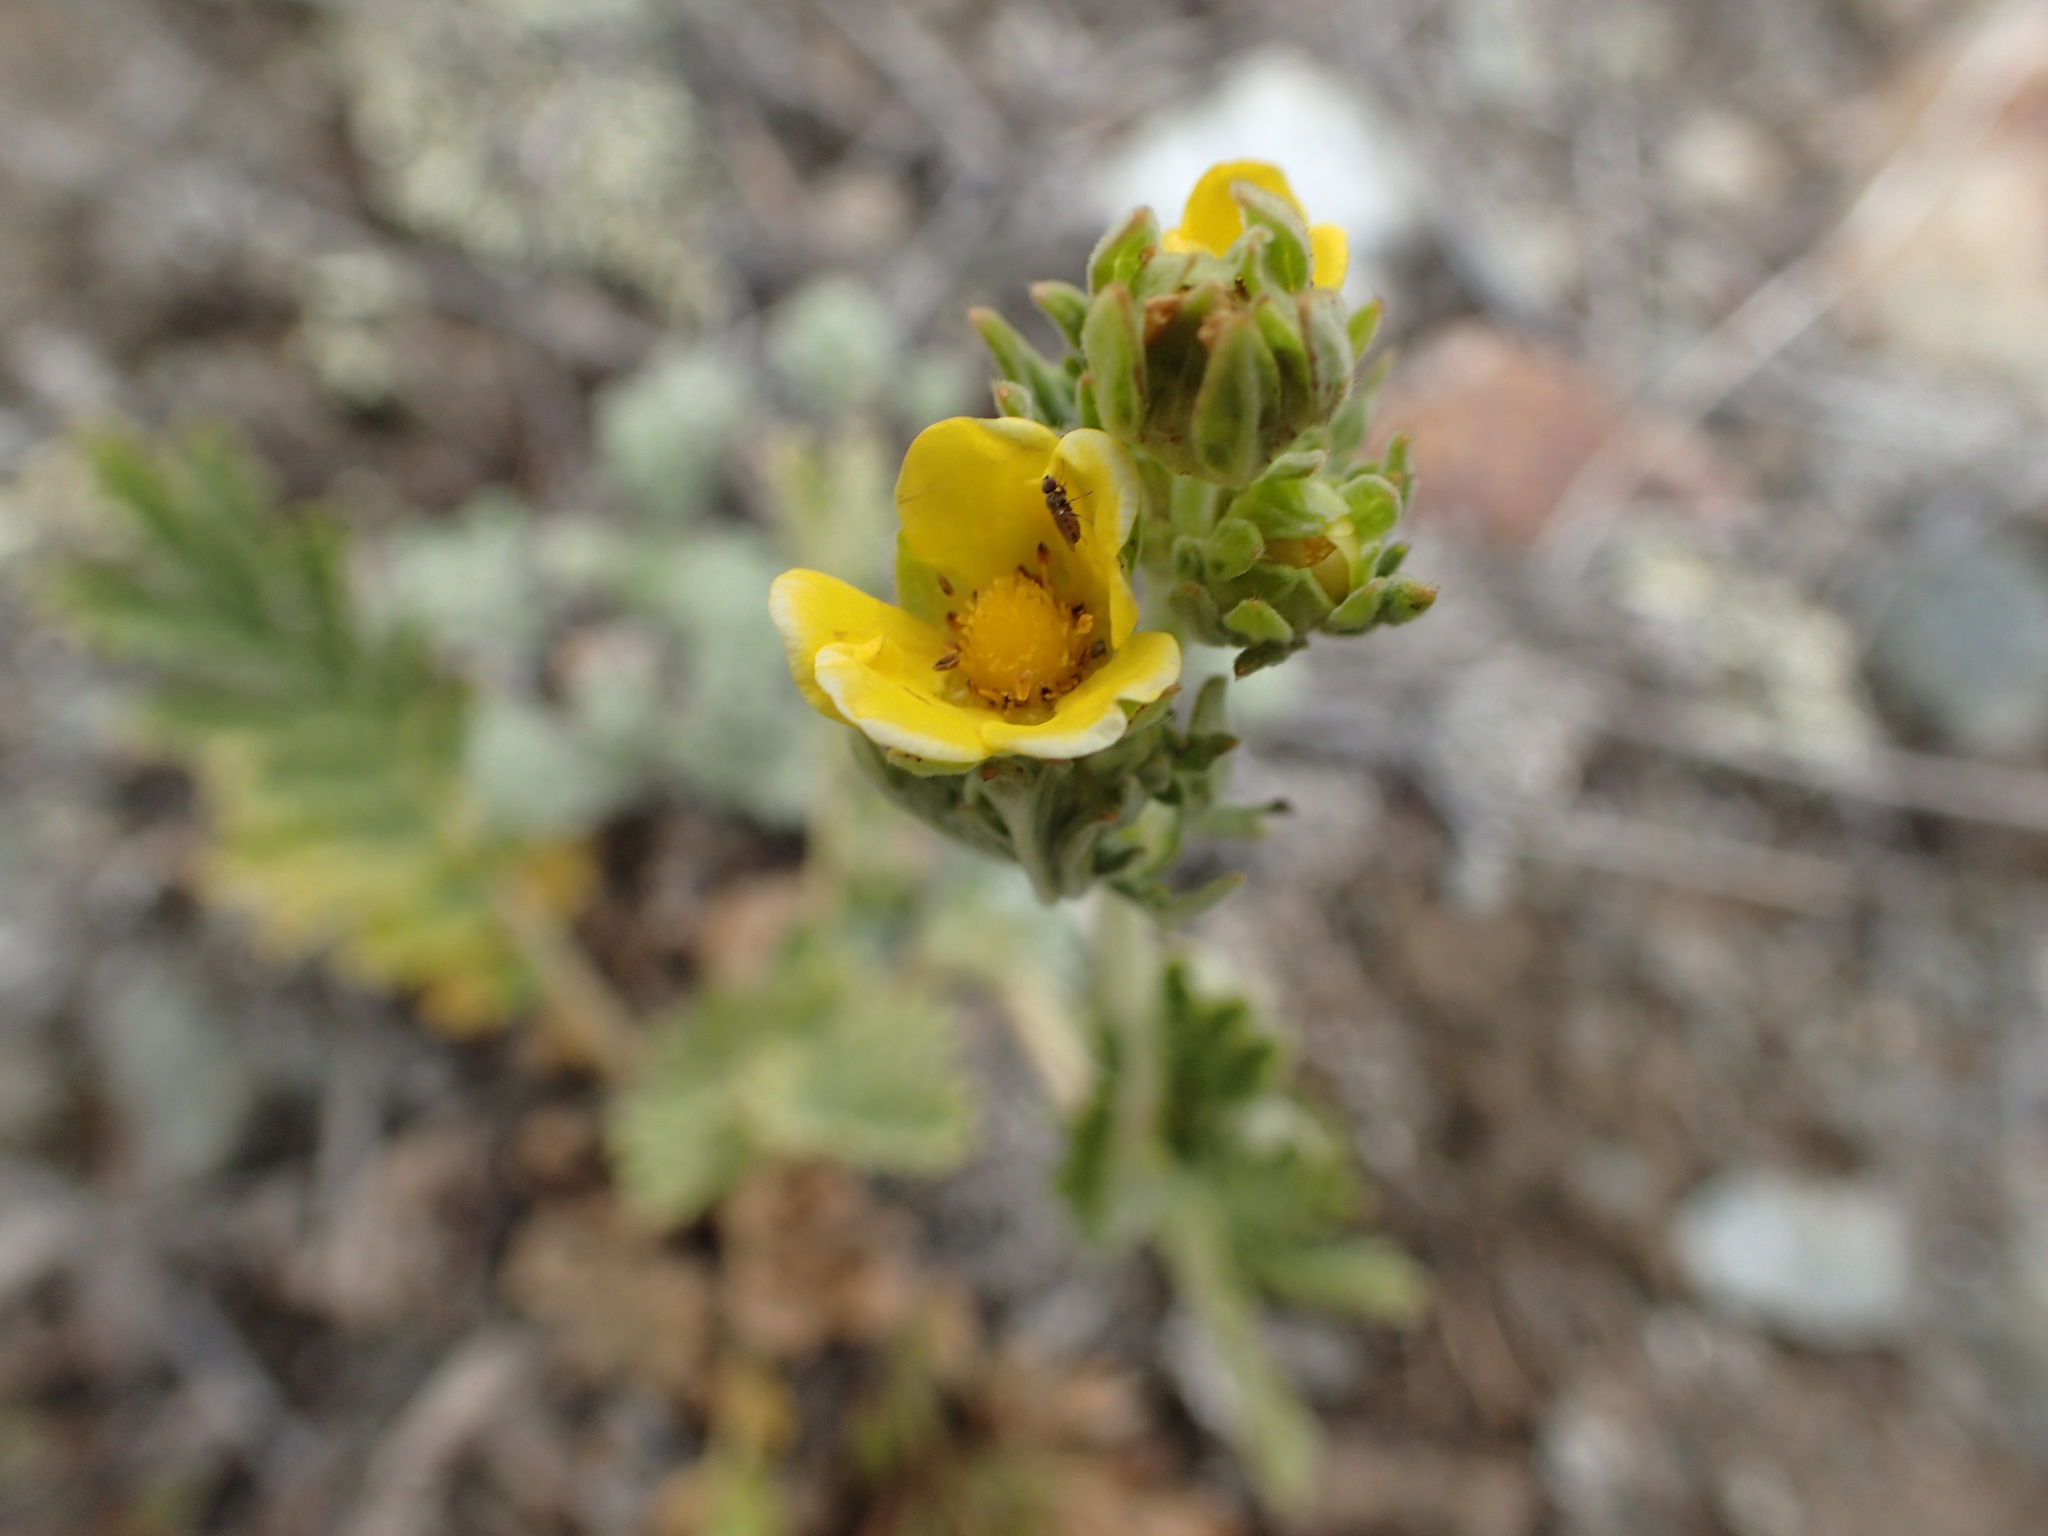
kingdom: Plantae
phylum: Tracheophyta
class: Magnoliopsida
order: Rosales
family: Rosaceae
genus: Potentilla
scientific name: Potentilla pensylvanica
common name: Pennsylvania cinquefoil
